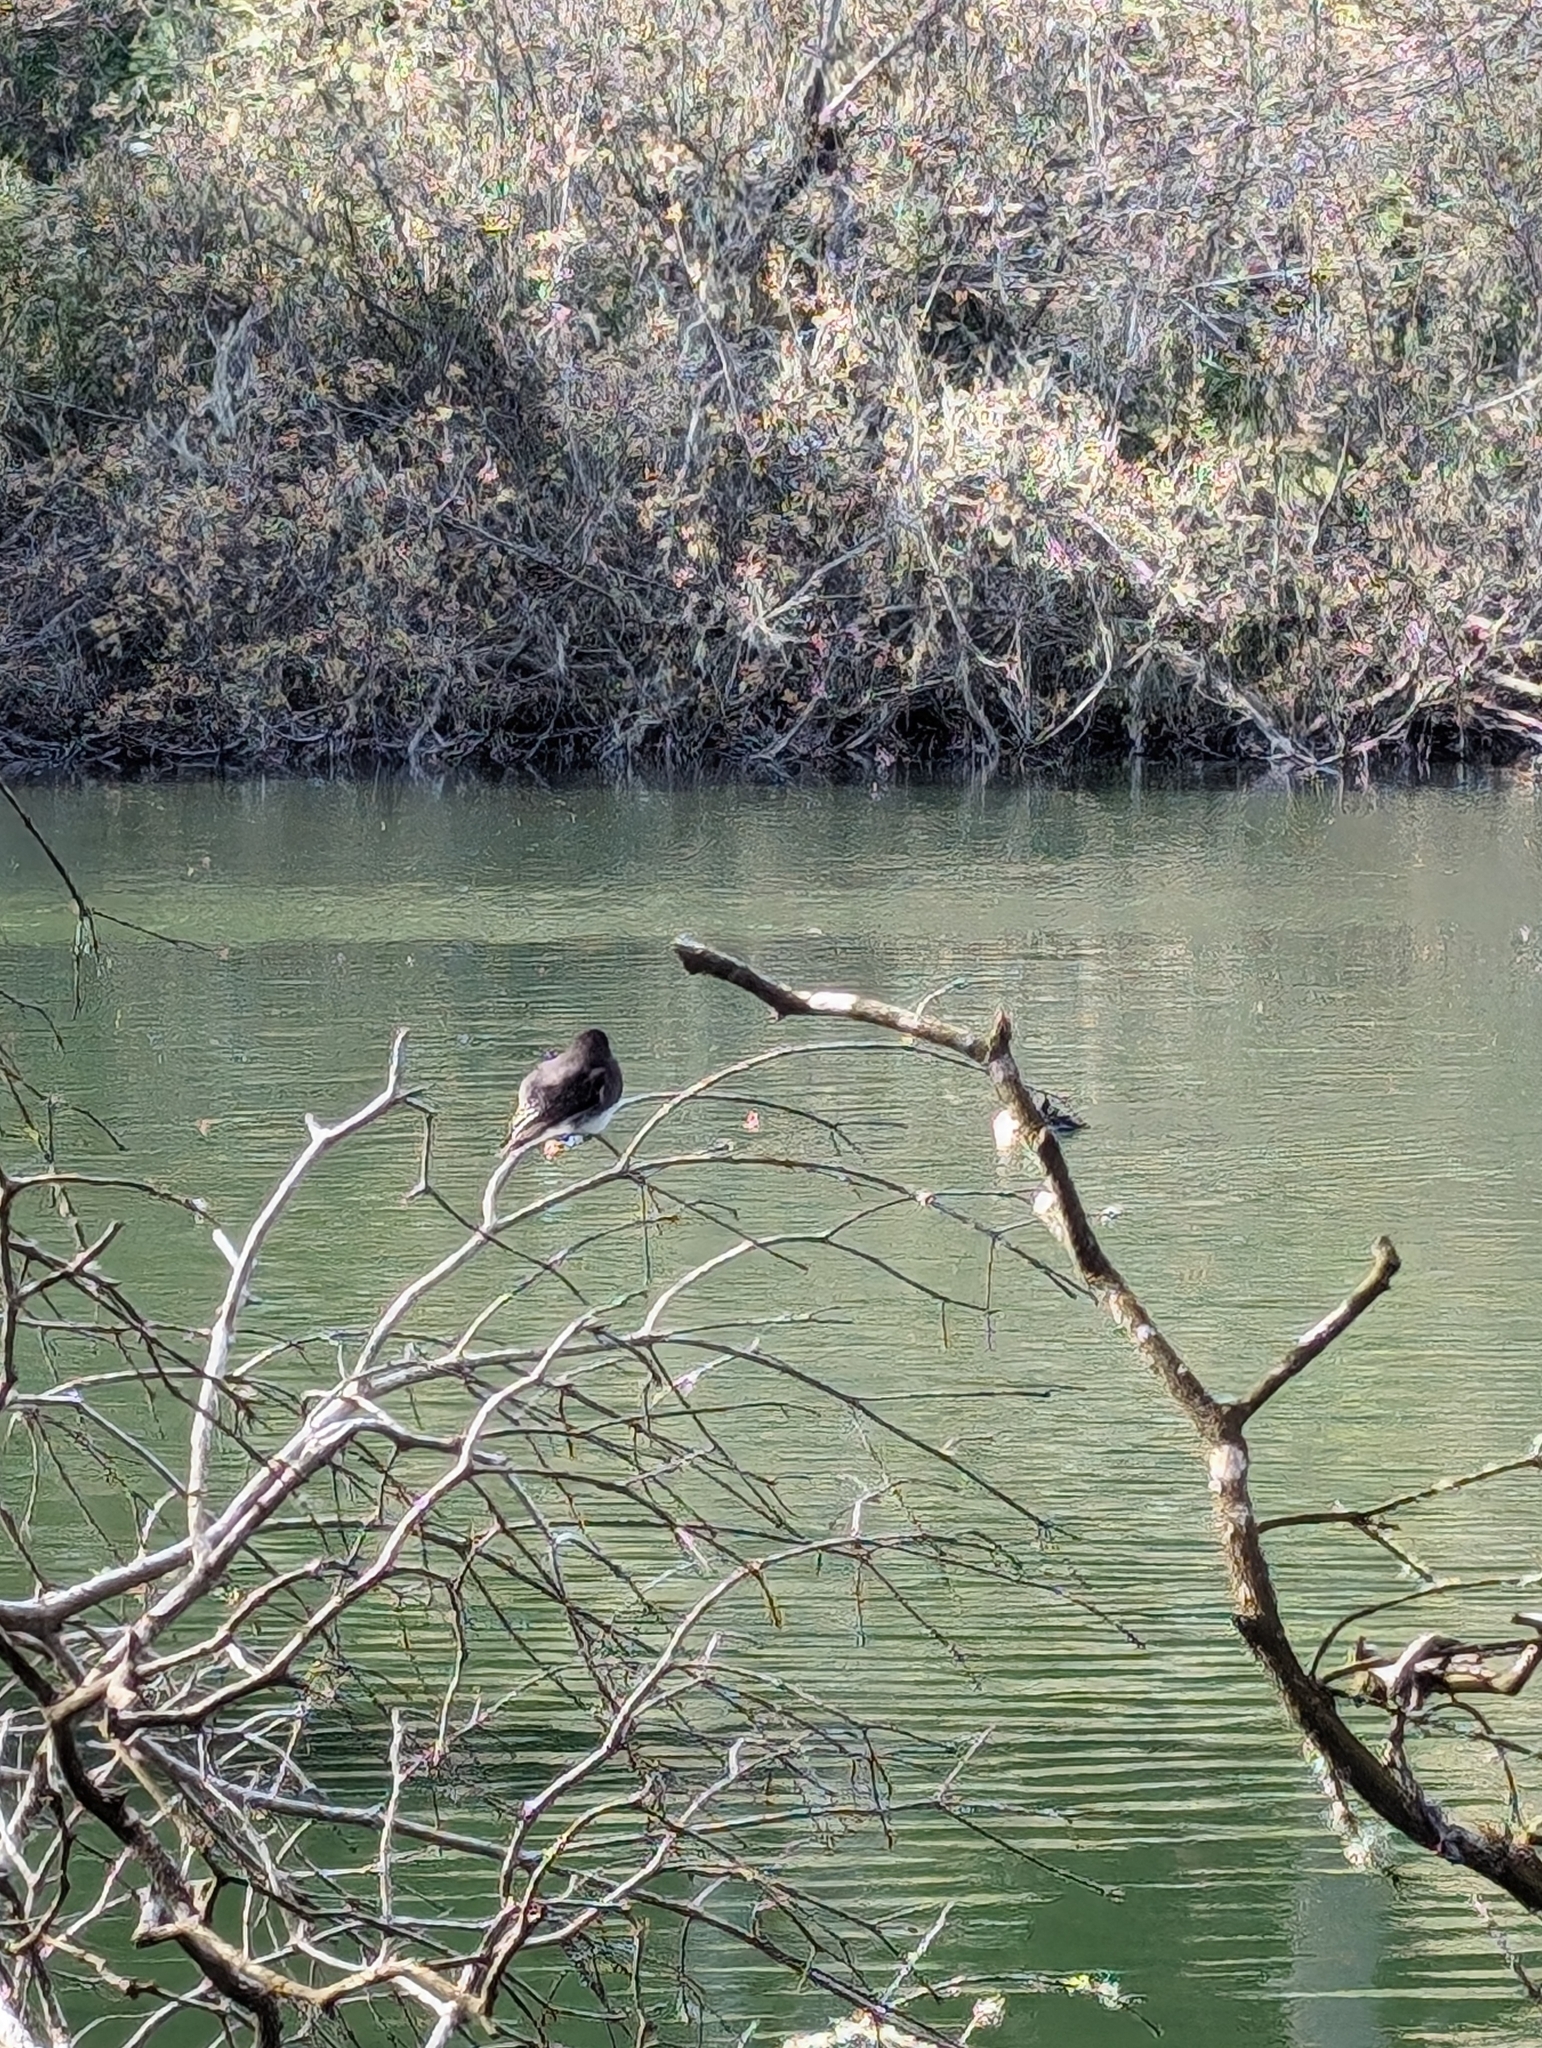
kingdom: Animalia
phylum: Chordata
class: Aves
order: Passeriformes
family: Tyrannidae
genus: Sayornis
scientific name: Sayornis nigricans
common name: Black phoebe
